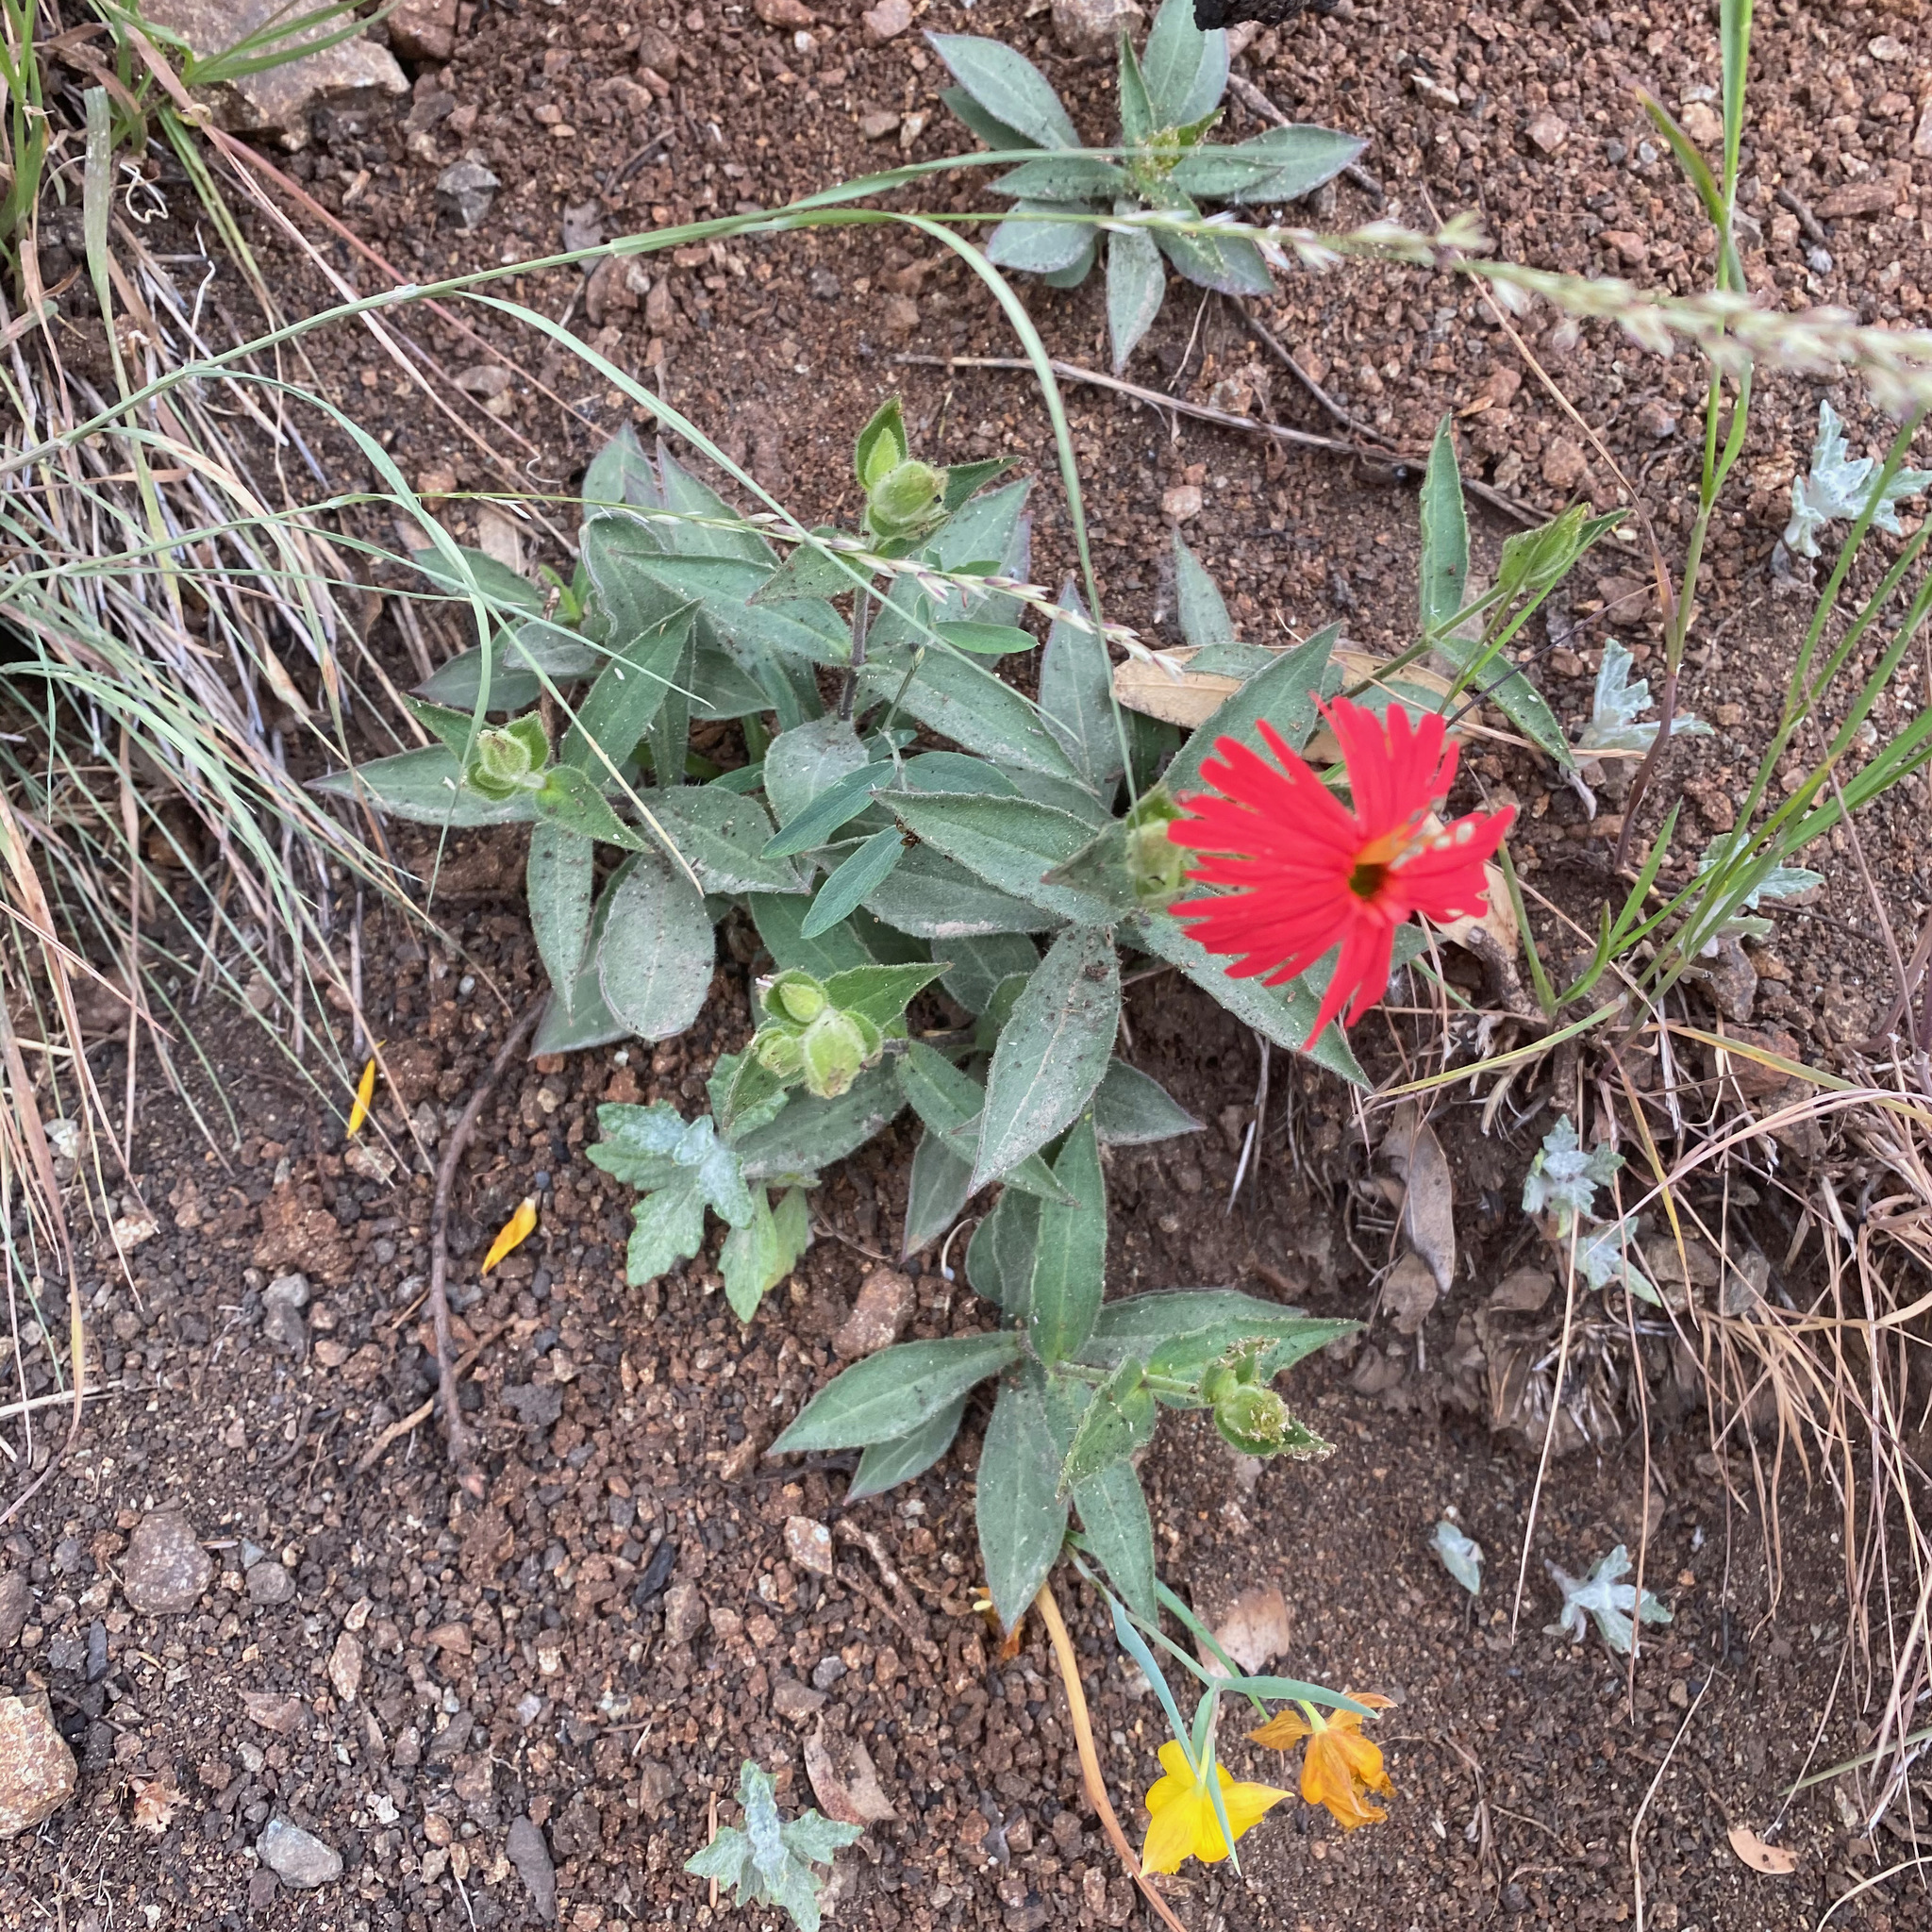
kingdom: Plantae
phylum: Tracheophyta
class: Magnoliopsida
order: Caryophyllales
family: Caryophyllaceae
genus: Silene
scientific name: Silene laciniata
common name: Indian-pink
